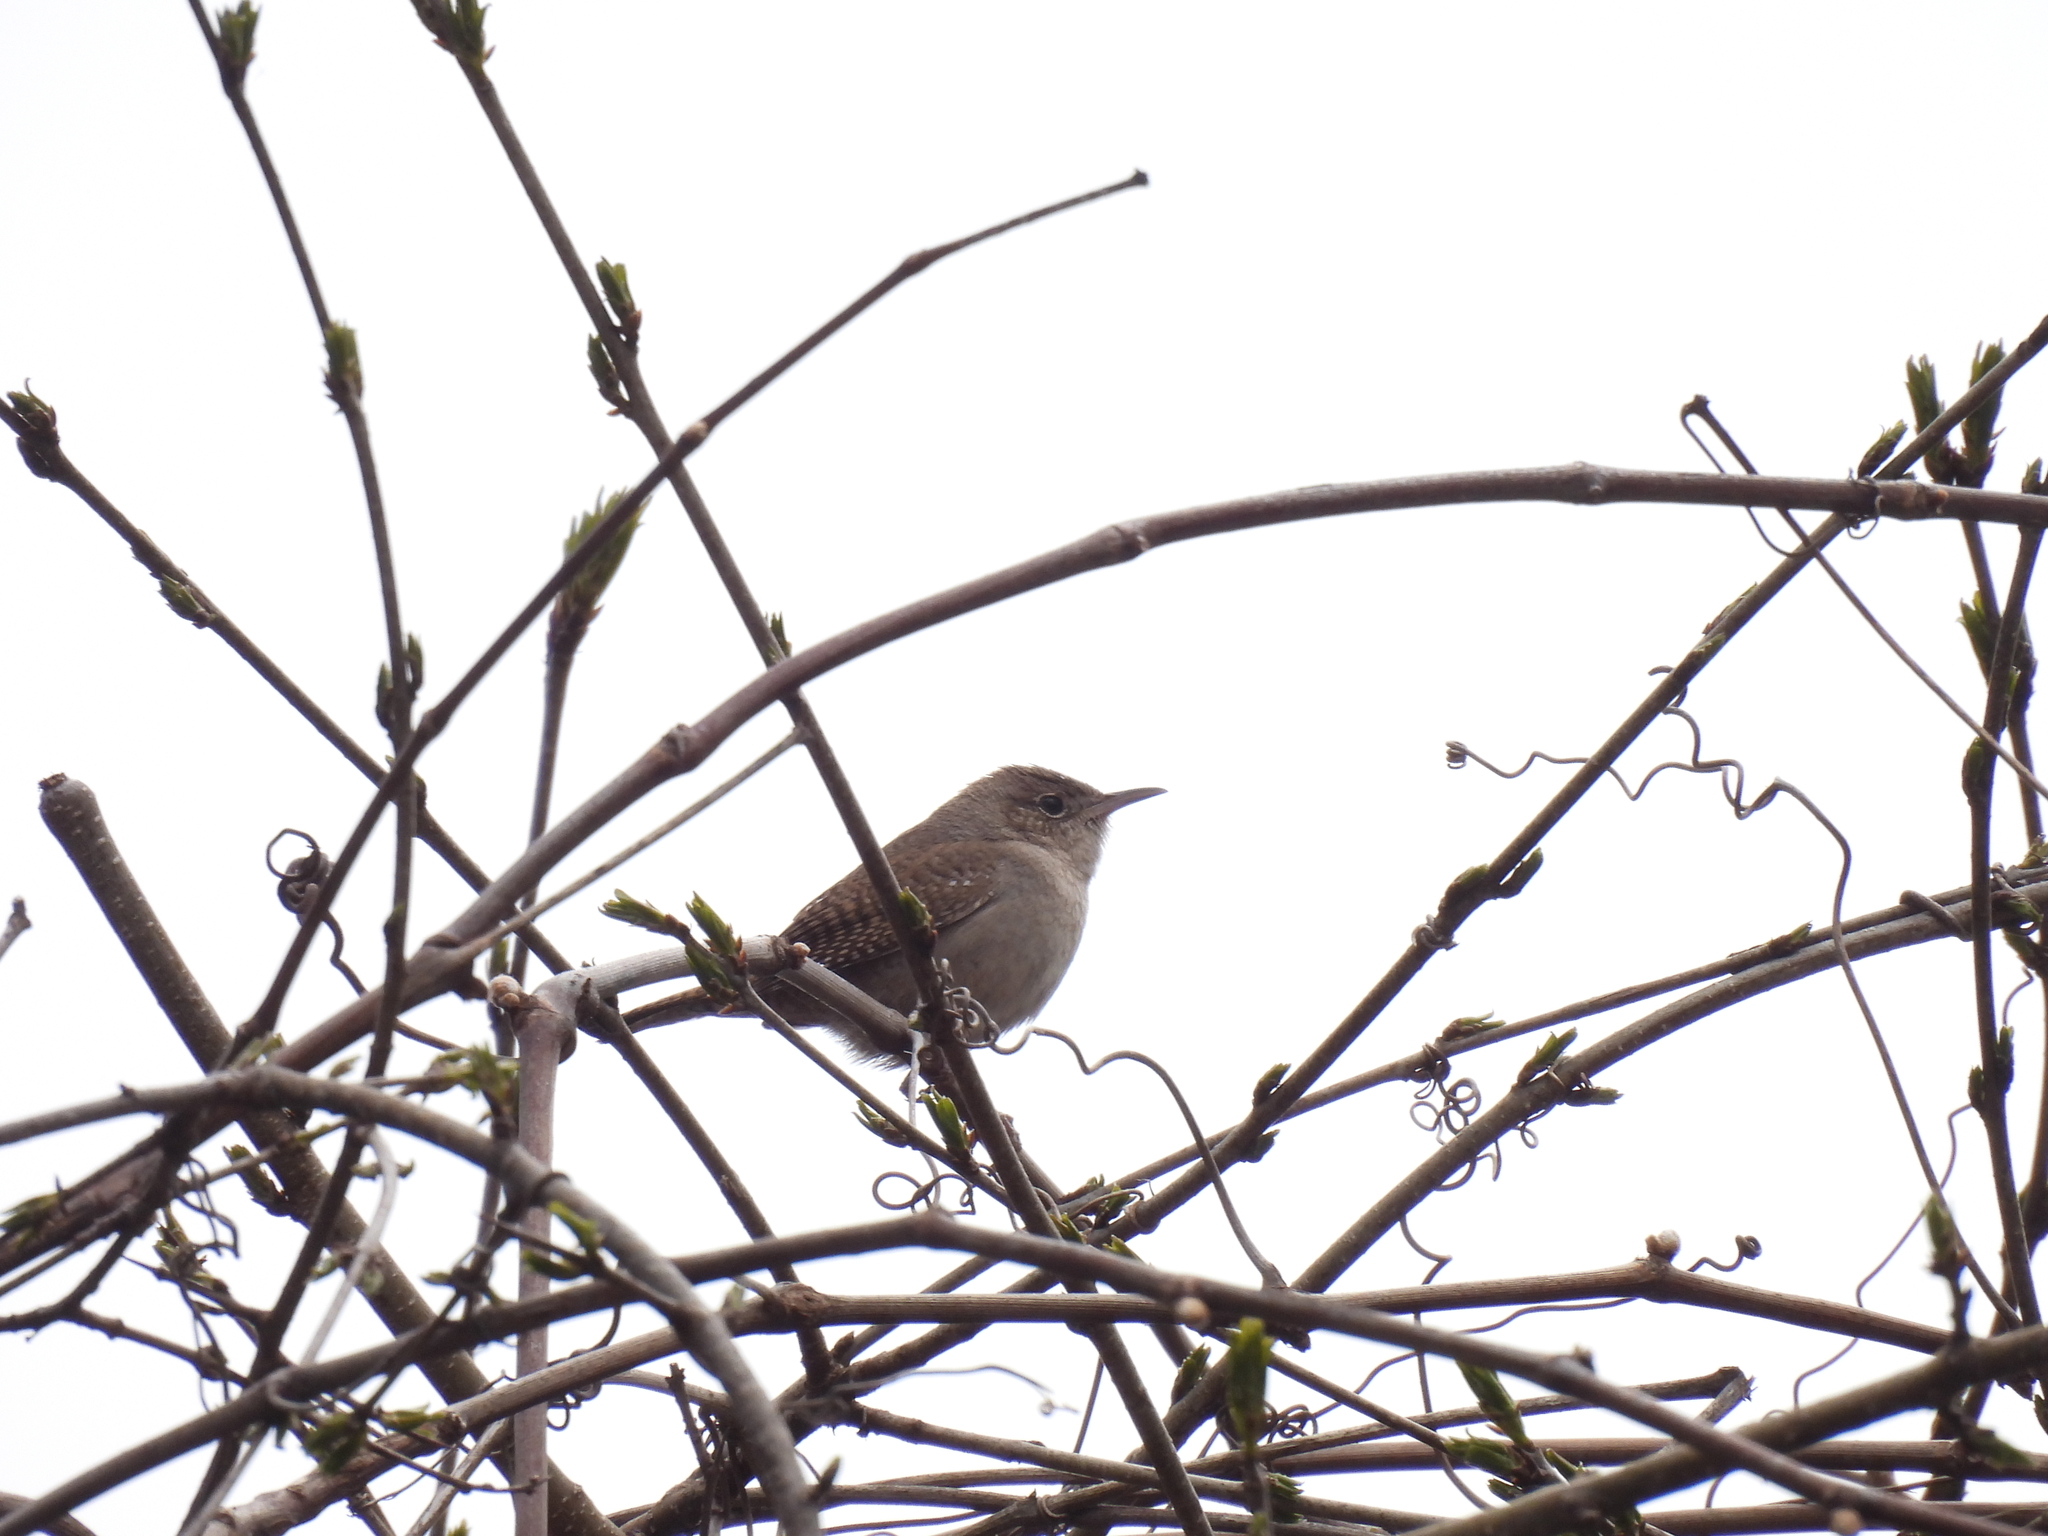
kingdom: Animalia
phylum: Chordata
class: Aves
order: Passeriformes
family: Troglodytidae
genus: Troglodytes
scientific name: Troglodytes aedon
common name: House wren
